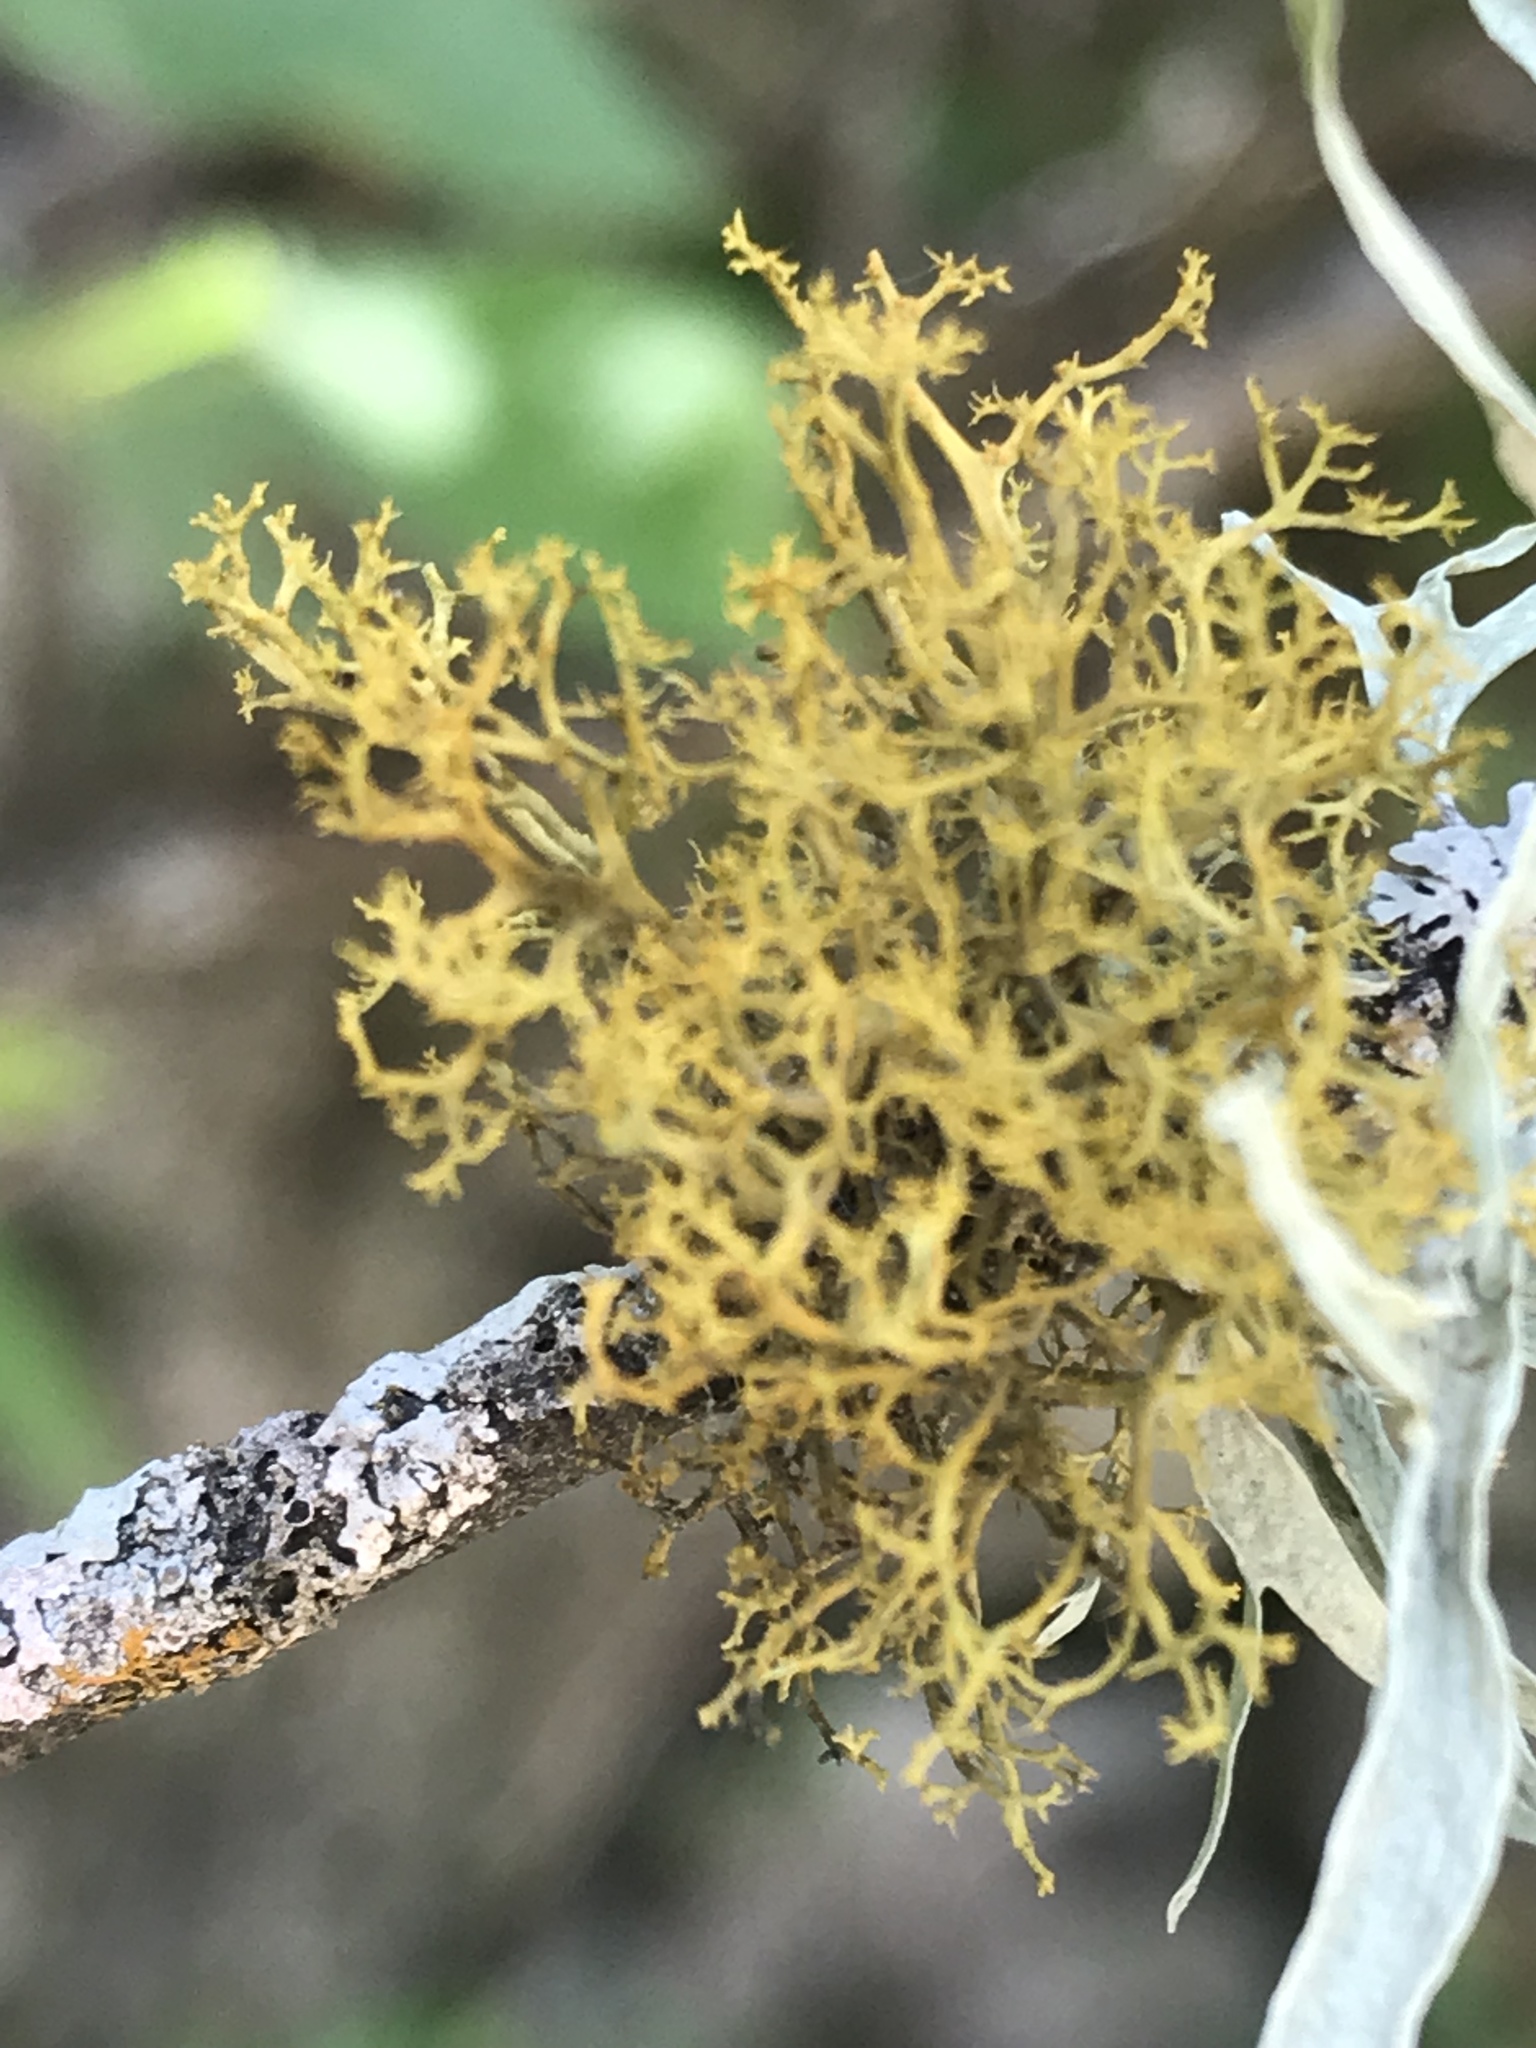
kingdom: Fungi
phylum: Ascomycota
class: Lecanoromycetes
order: Teloschistales
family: Teloschistaceae
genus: Teloschistes
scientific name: Teloschistes exilis
